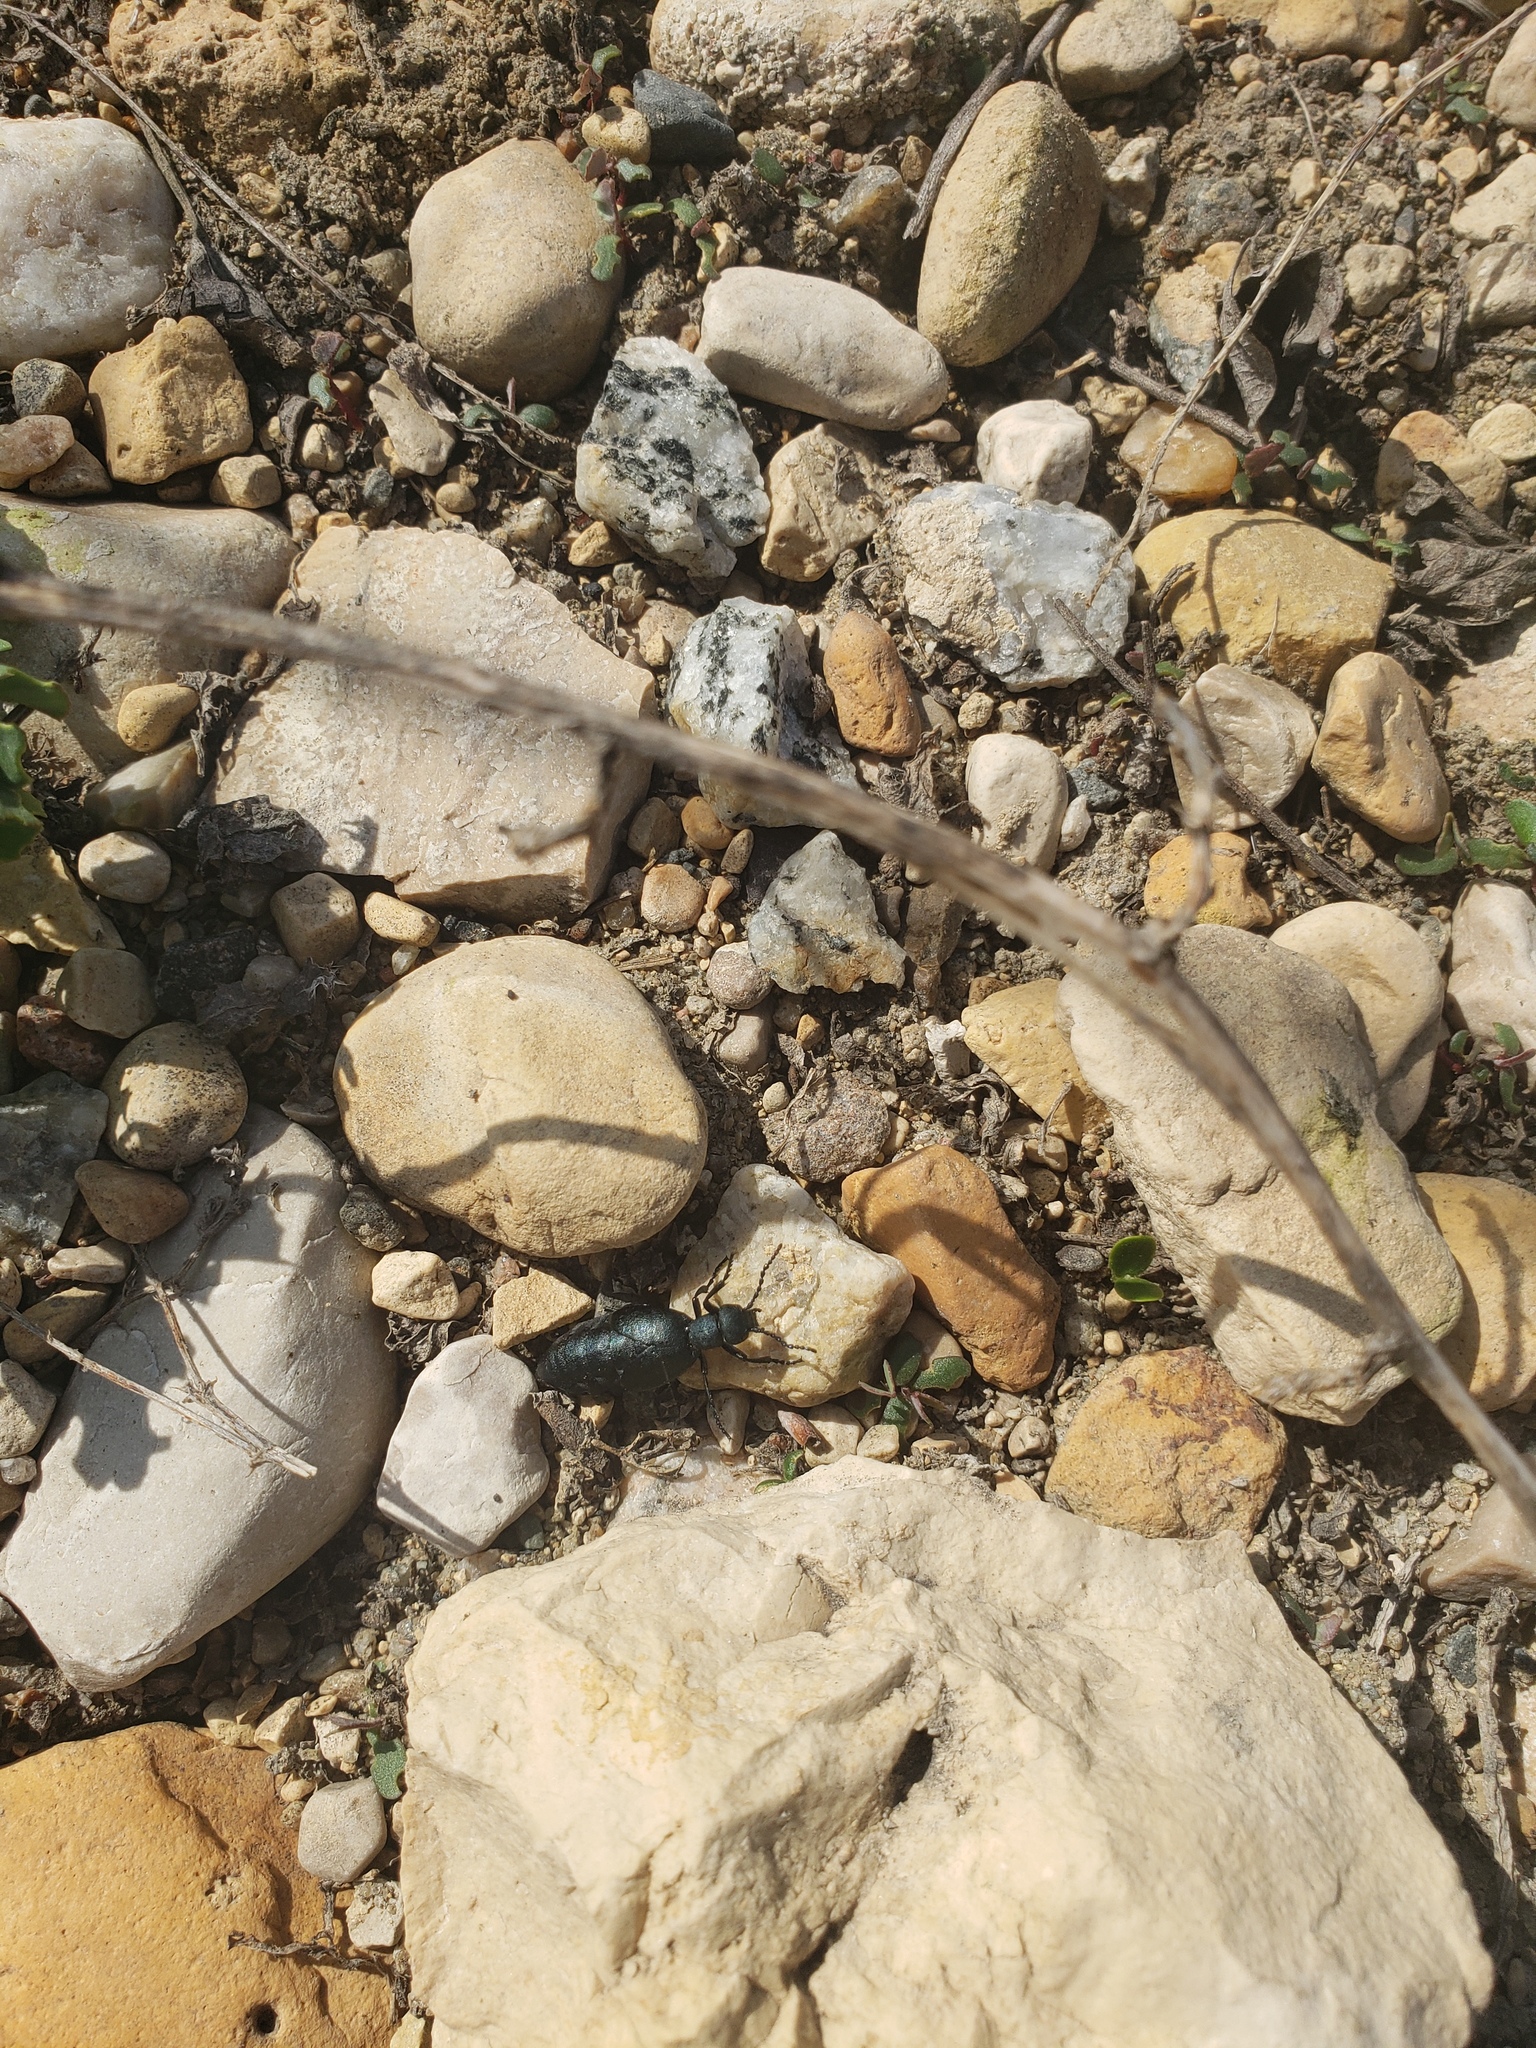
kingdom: Animalia
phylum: Arthropoda
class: Insecta
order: Coleoptera
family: Carabidae
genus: Calosoma
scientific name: Calosoma calidum
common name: Fiery hunter
